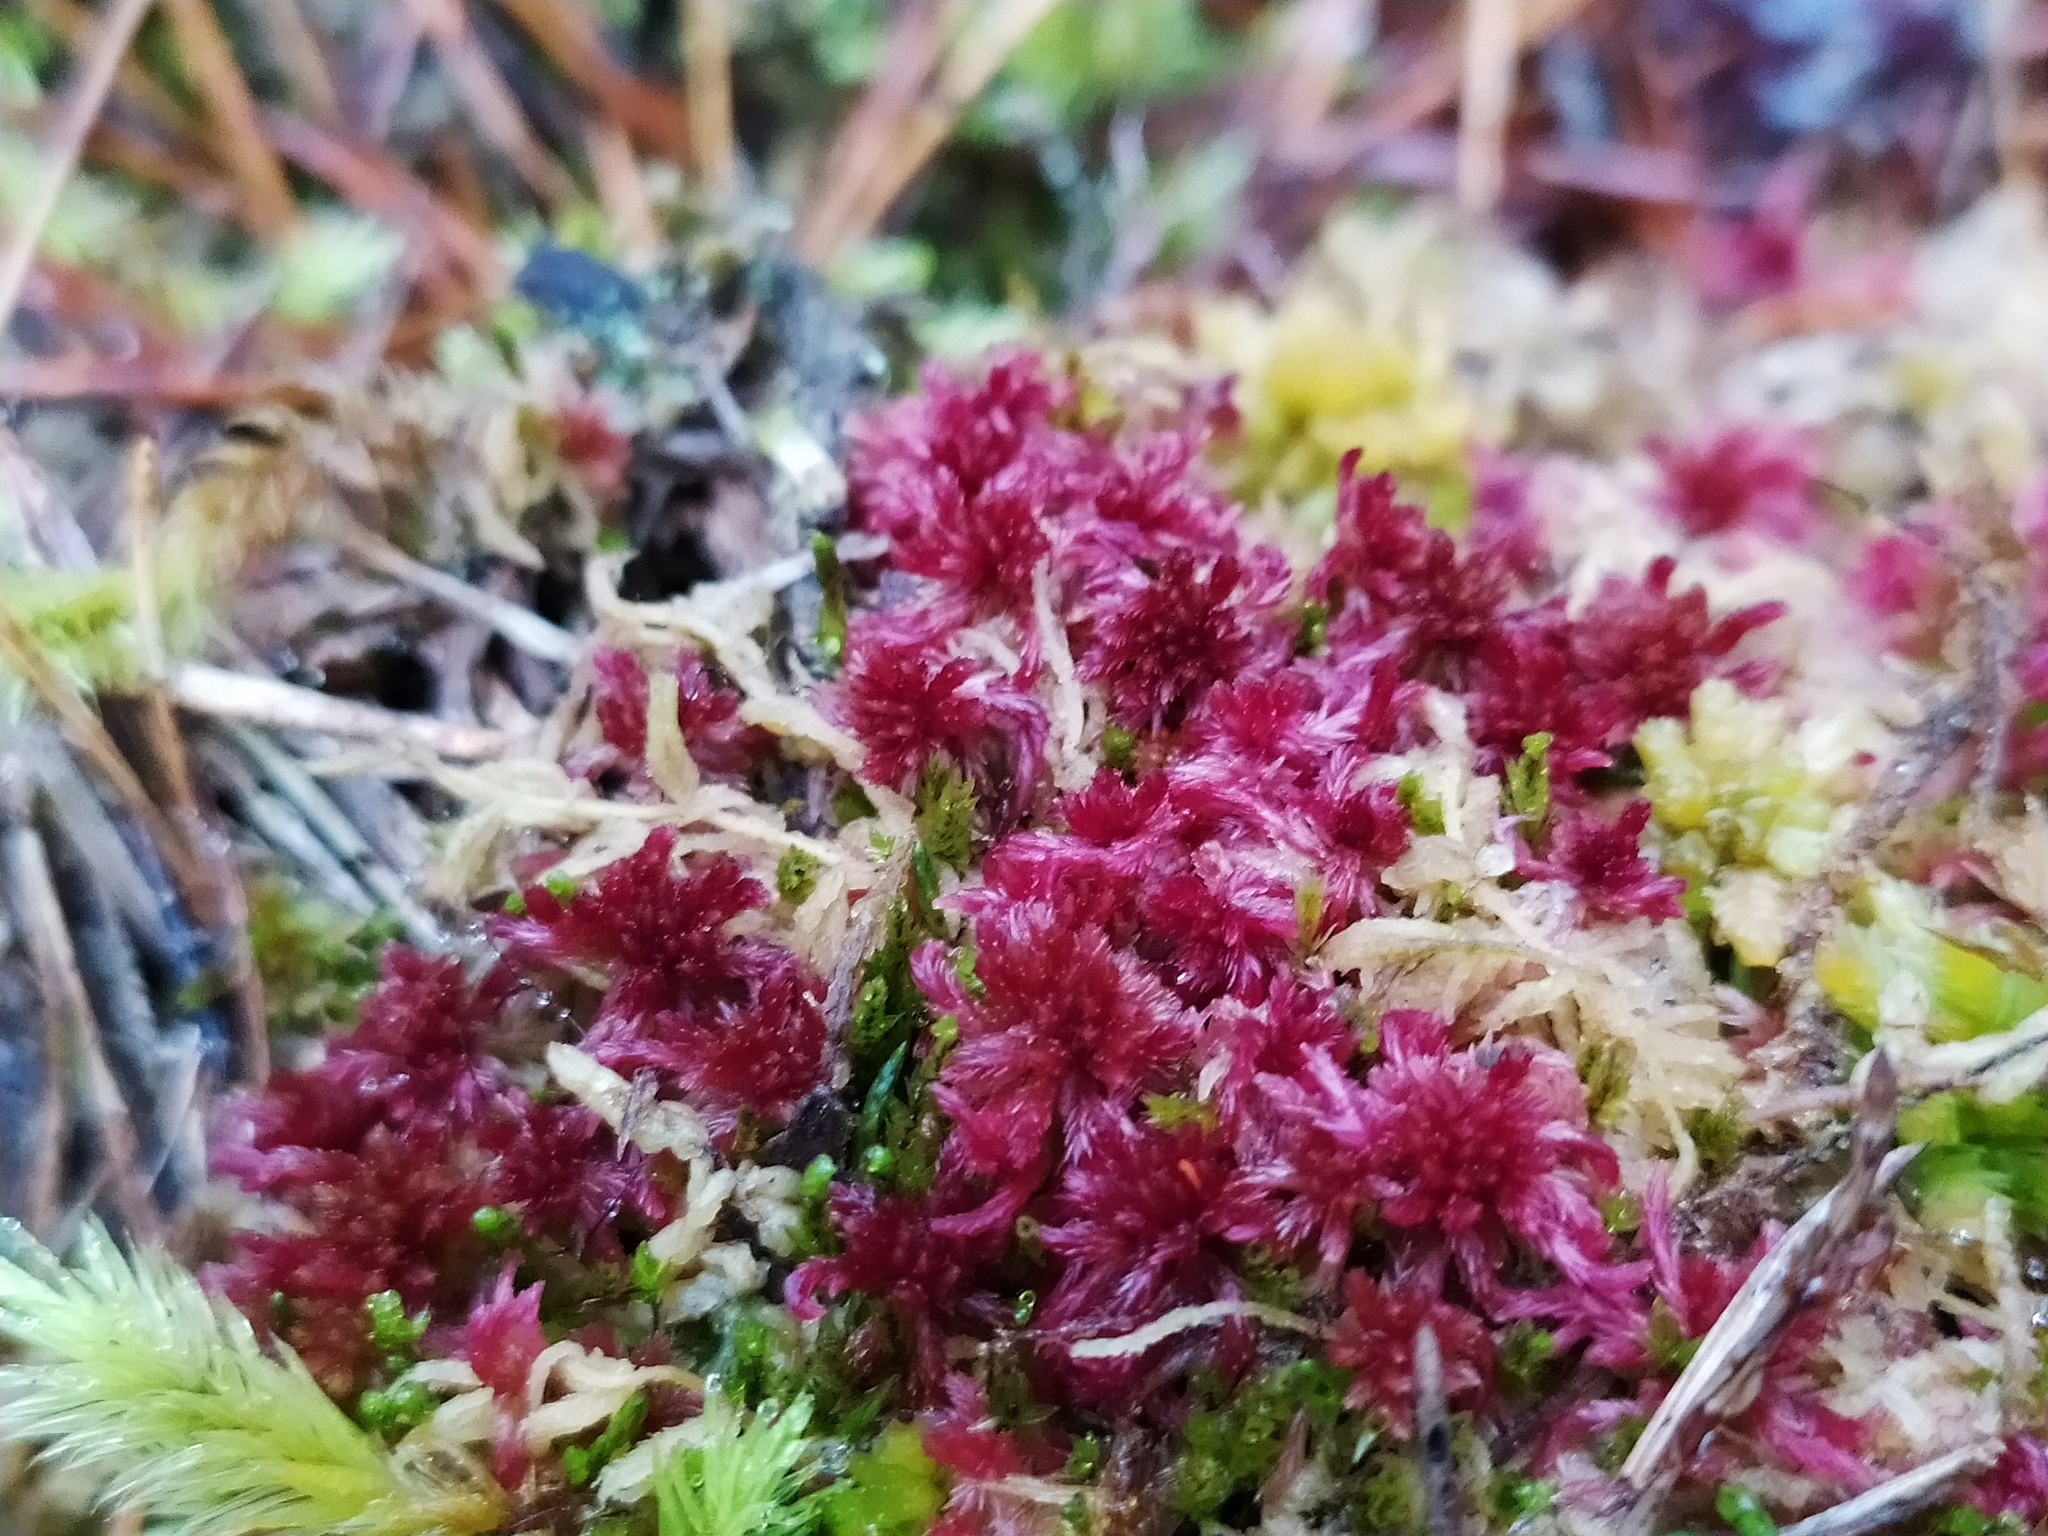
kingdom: Plantae
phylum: Bryophyta
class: Sphagnopsida
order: Sphagnales
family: Sphagnaceae
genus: Sphagnum
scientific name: Sphagnum rubellum
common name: Red peat moss
